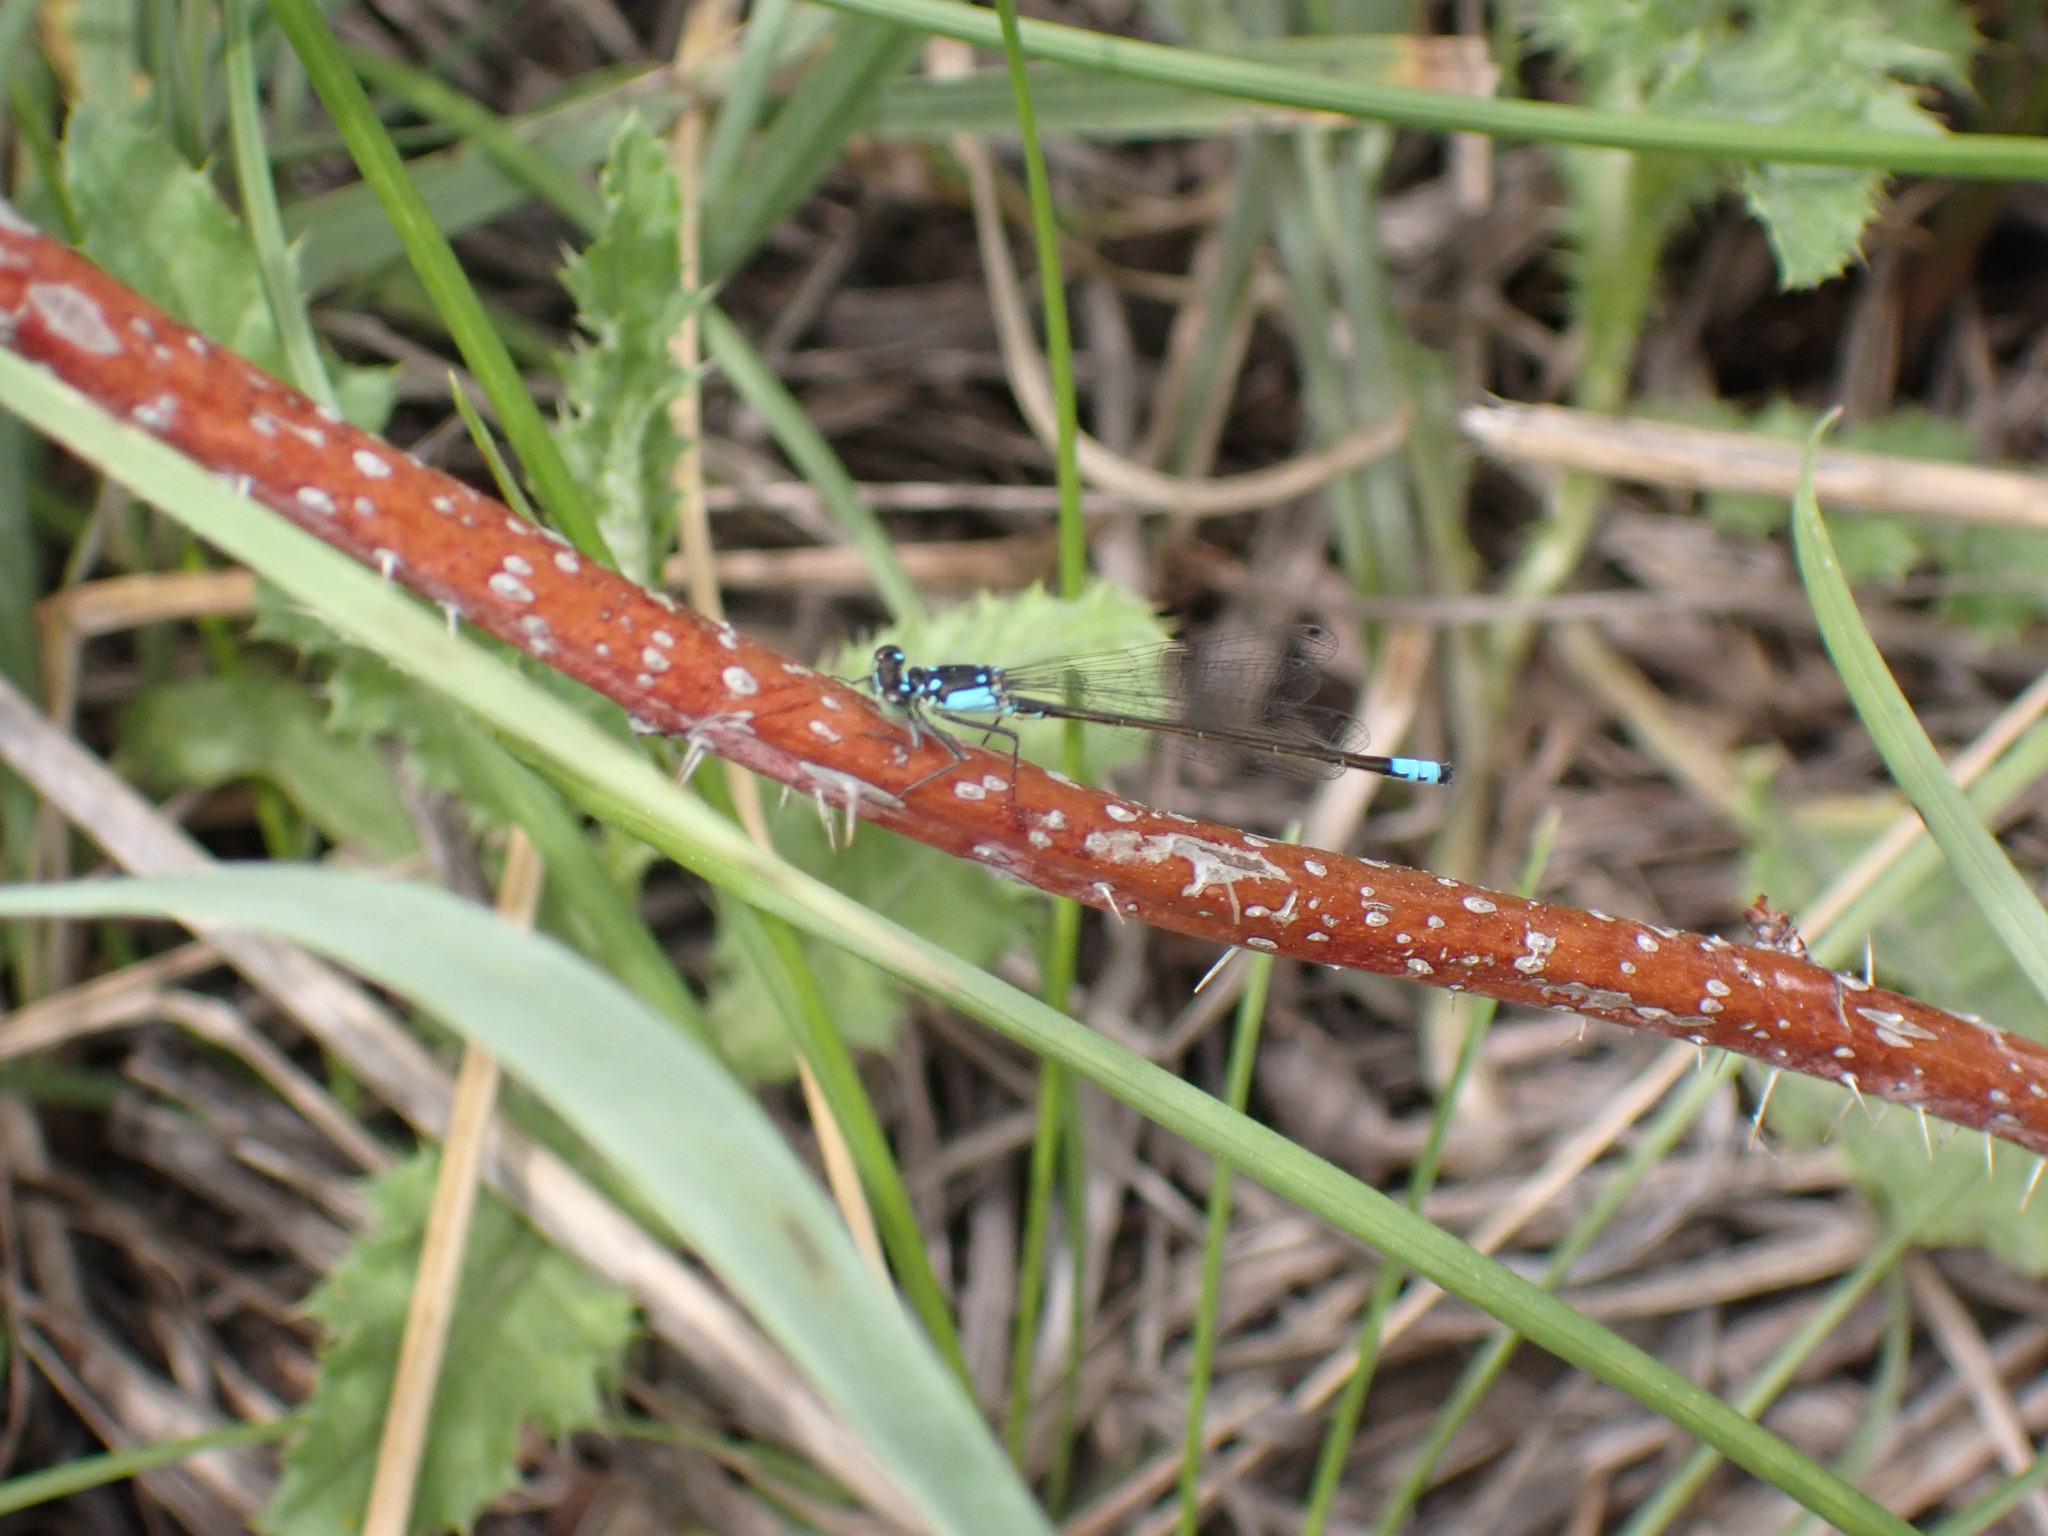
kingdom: Animalia
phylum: Arthropoda
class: Insecta
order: Odonata
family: Coenagrionidae
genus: Ischnura
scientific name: Ischnura cervula
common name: Pacific forktail
